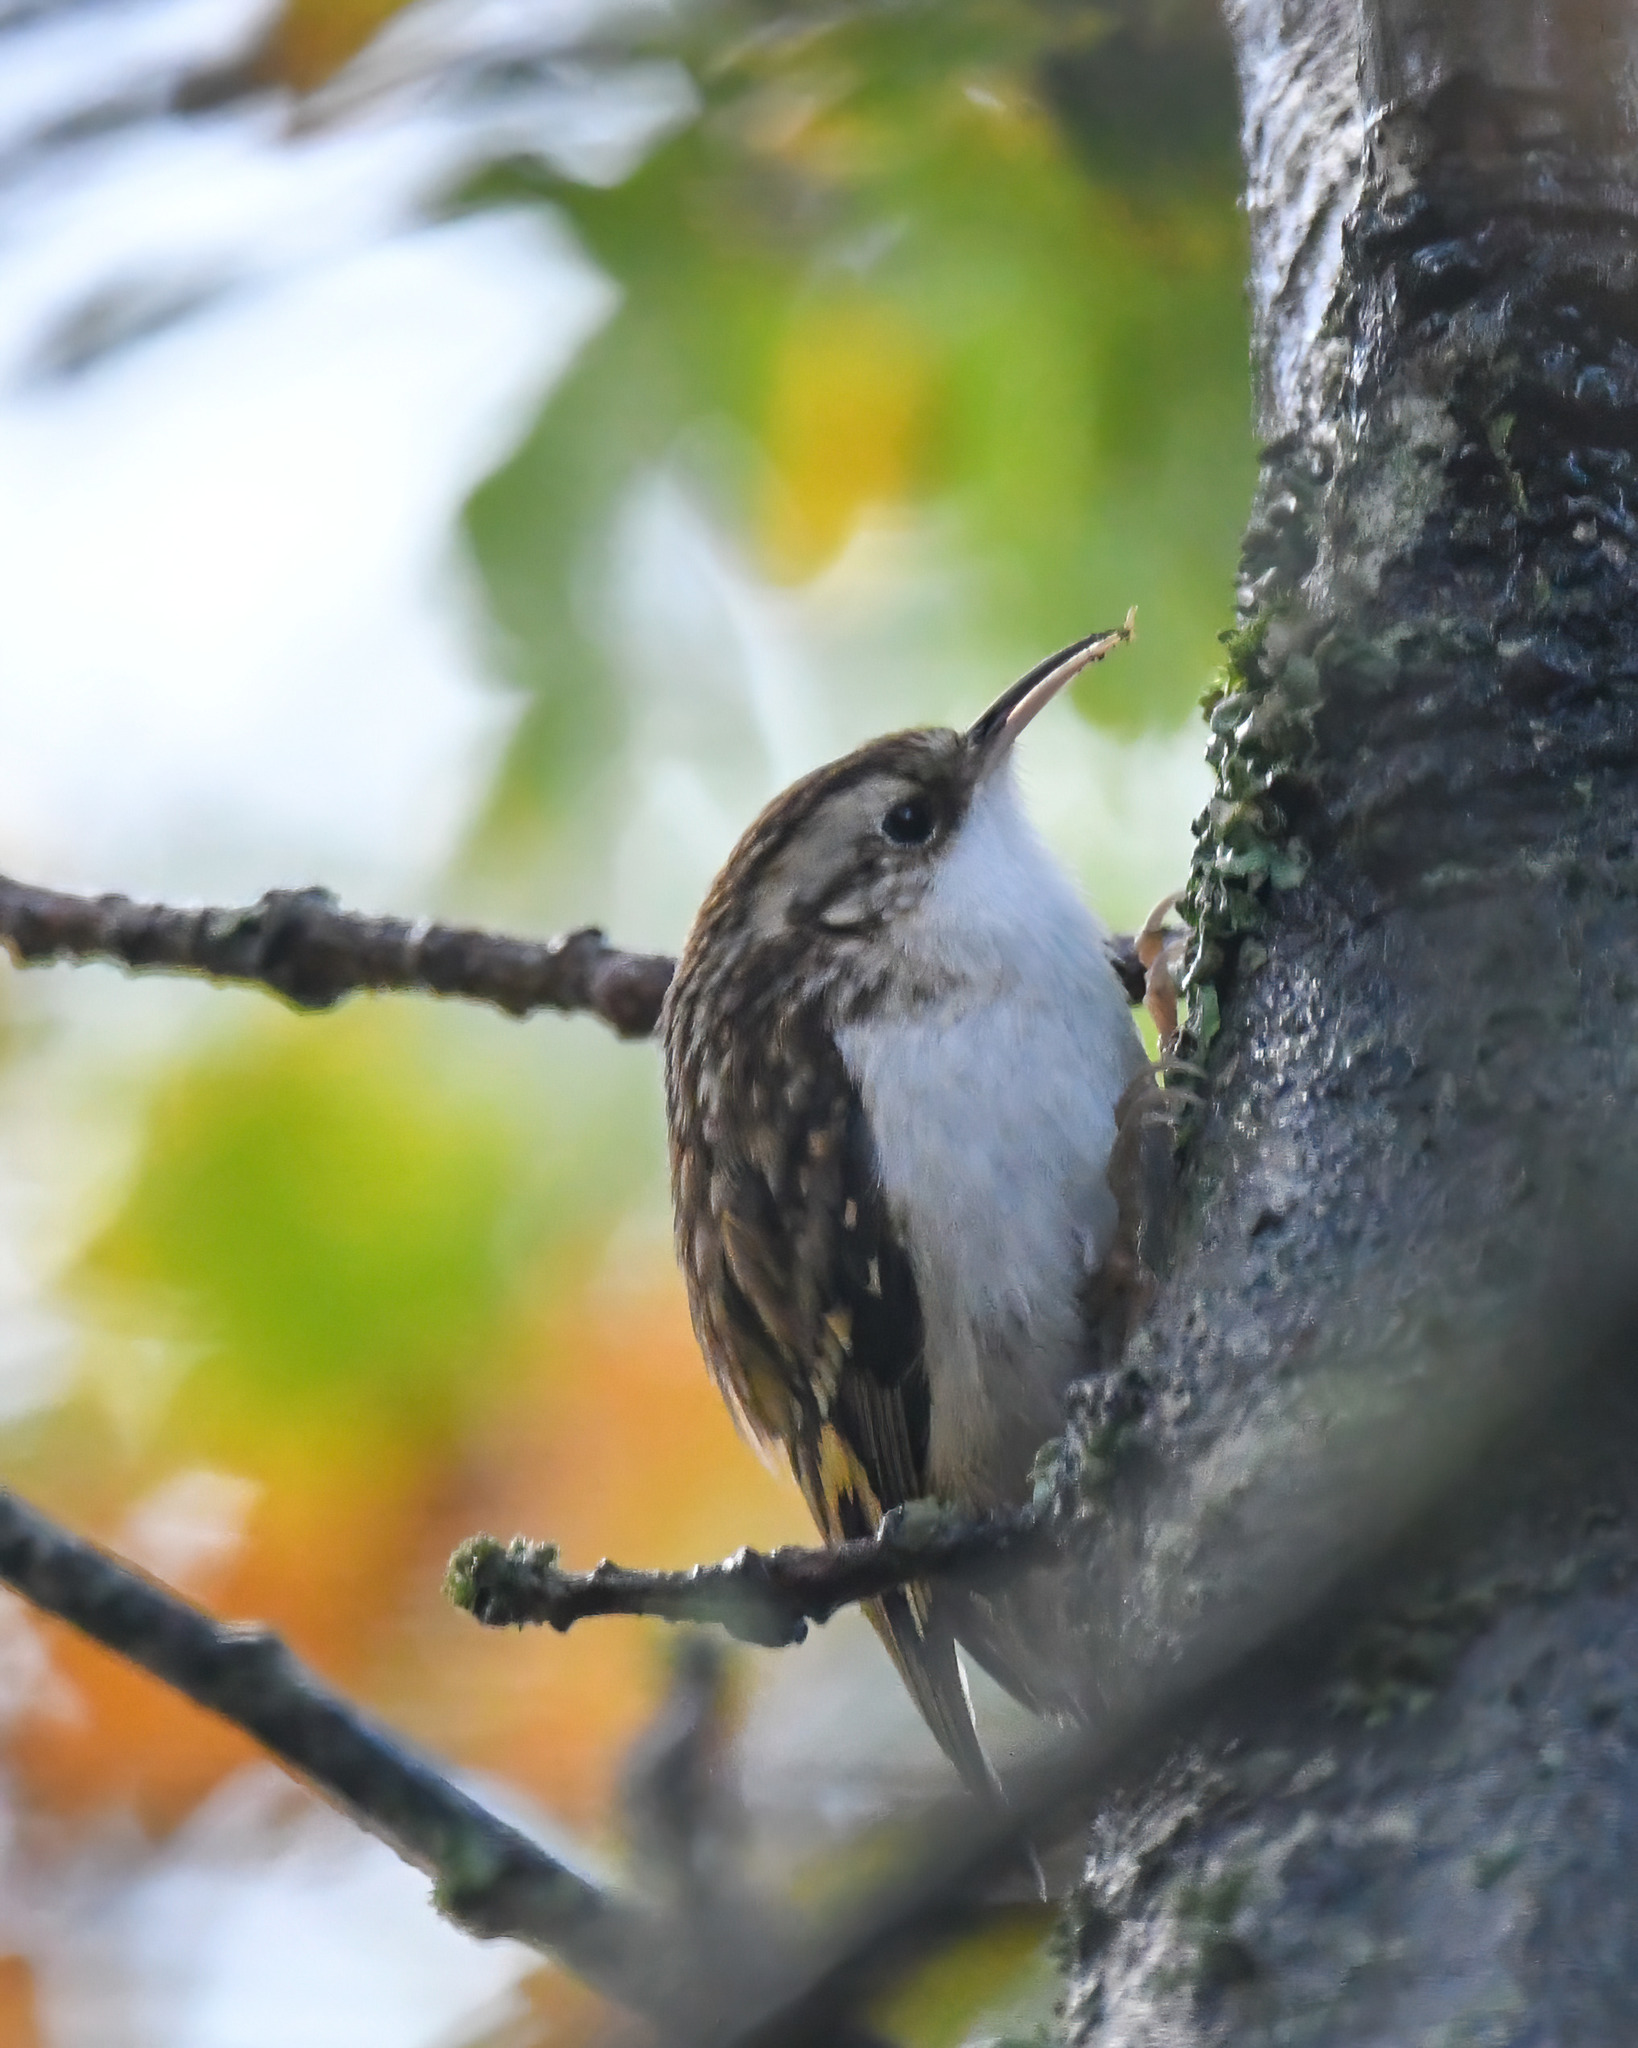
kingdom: Animalia
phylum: Chordata
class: Aves
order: Passeriformes
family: Certhiidae
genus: Certhia
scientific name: Certhia familiaris
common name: Eurasian treecreeper
